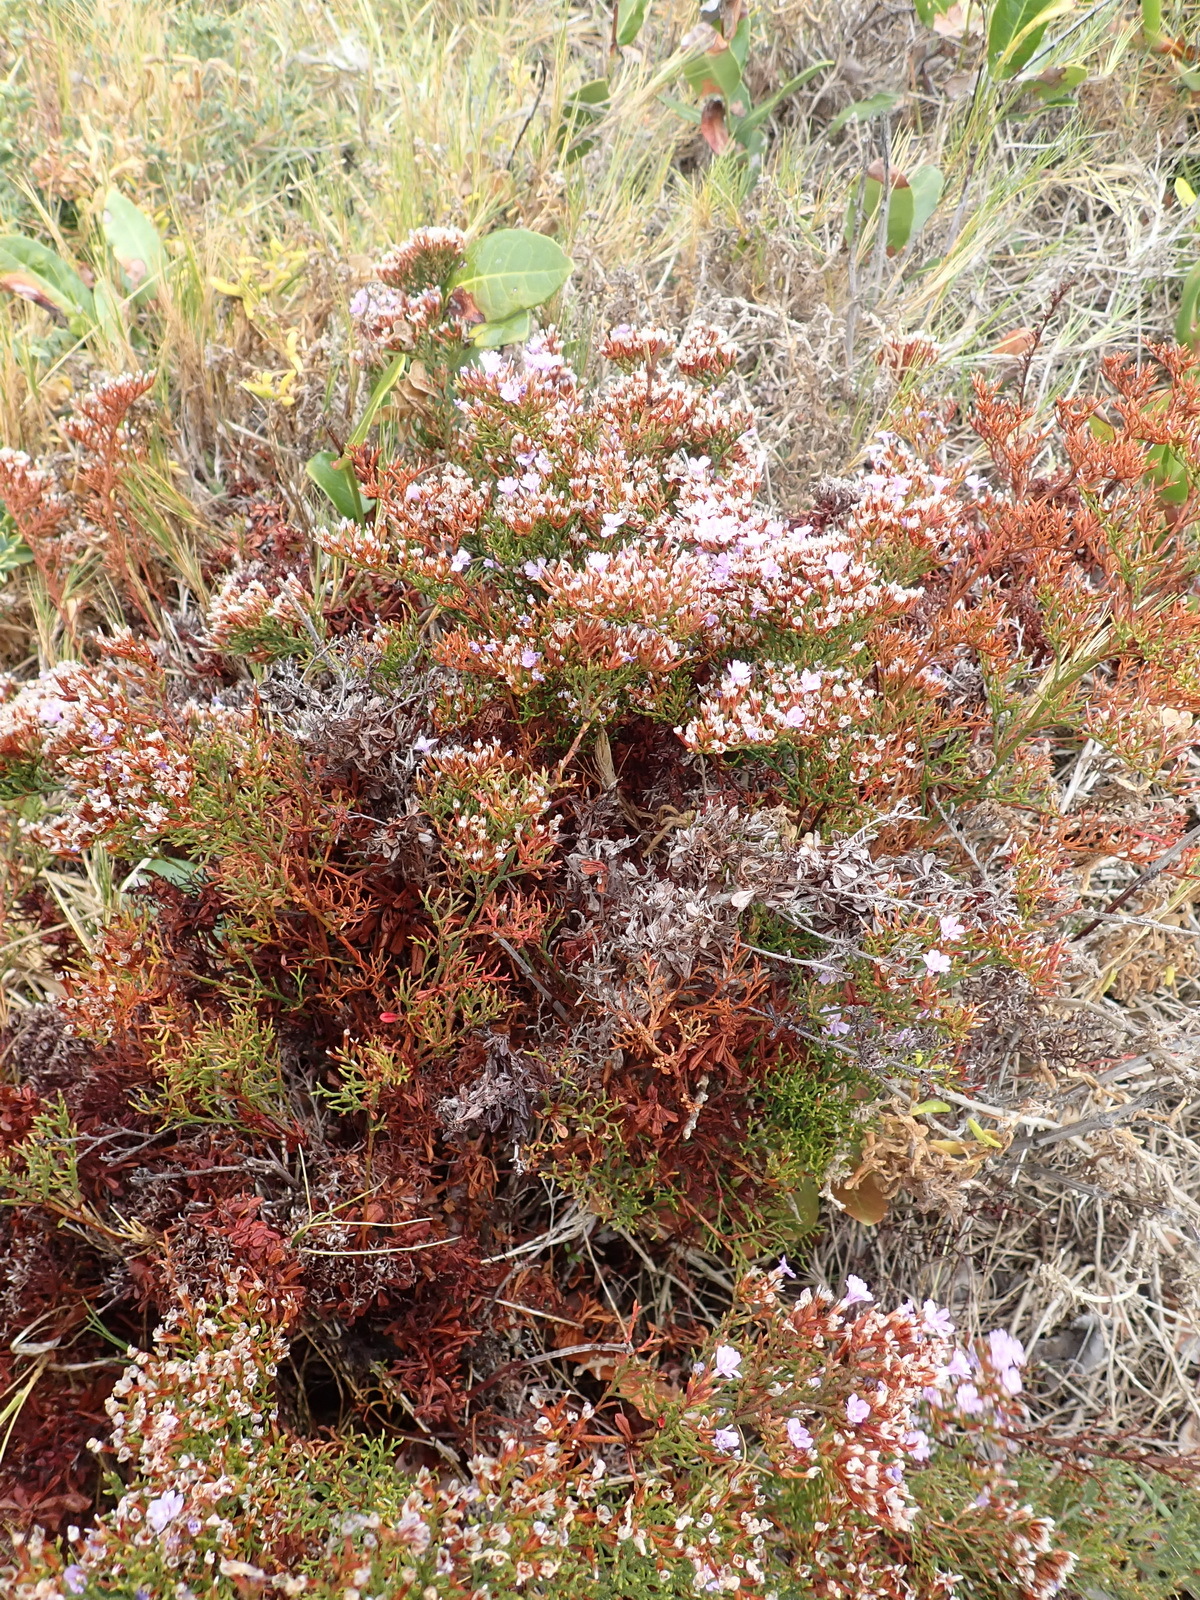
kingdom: Plantae
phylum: Tracheophyta
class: Magnoliopsida
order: Caryophyllales
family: Plumbaginaceae
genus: Limonium
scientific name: Limonium scabrum
